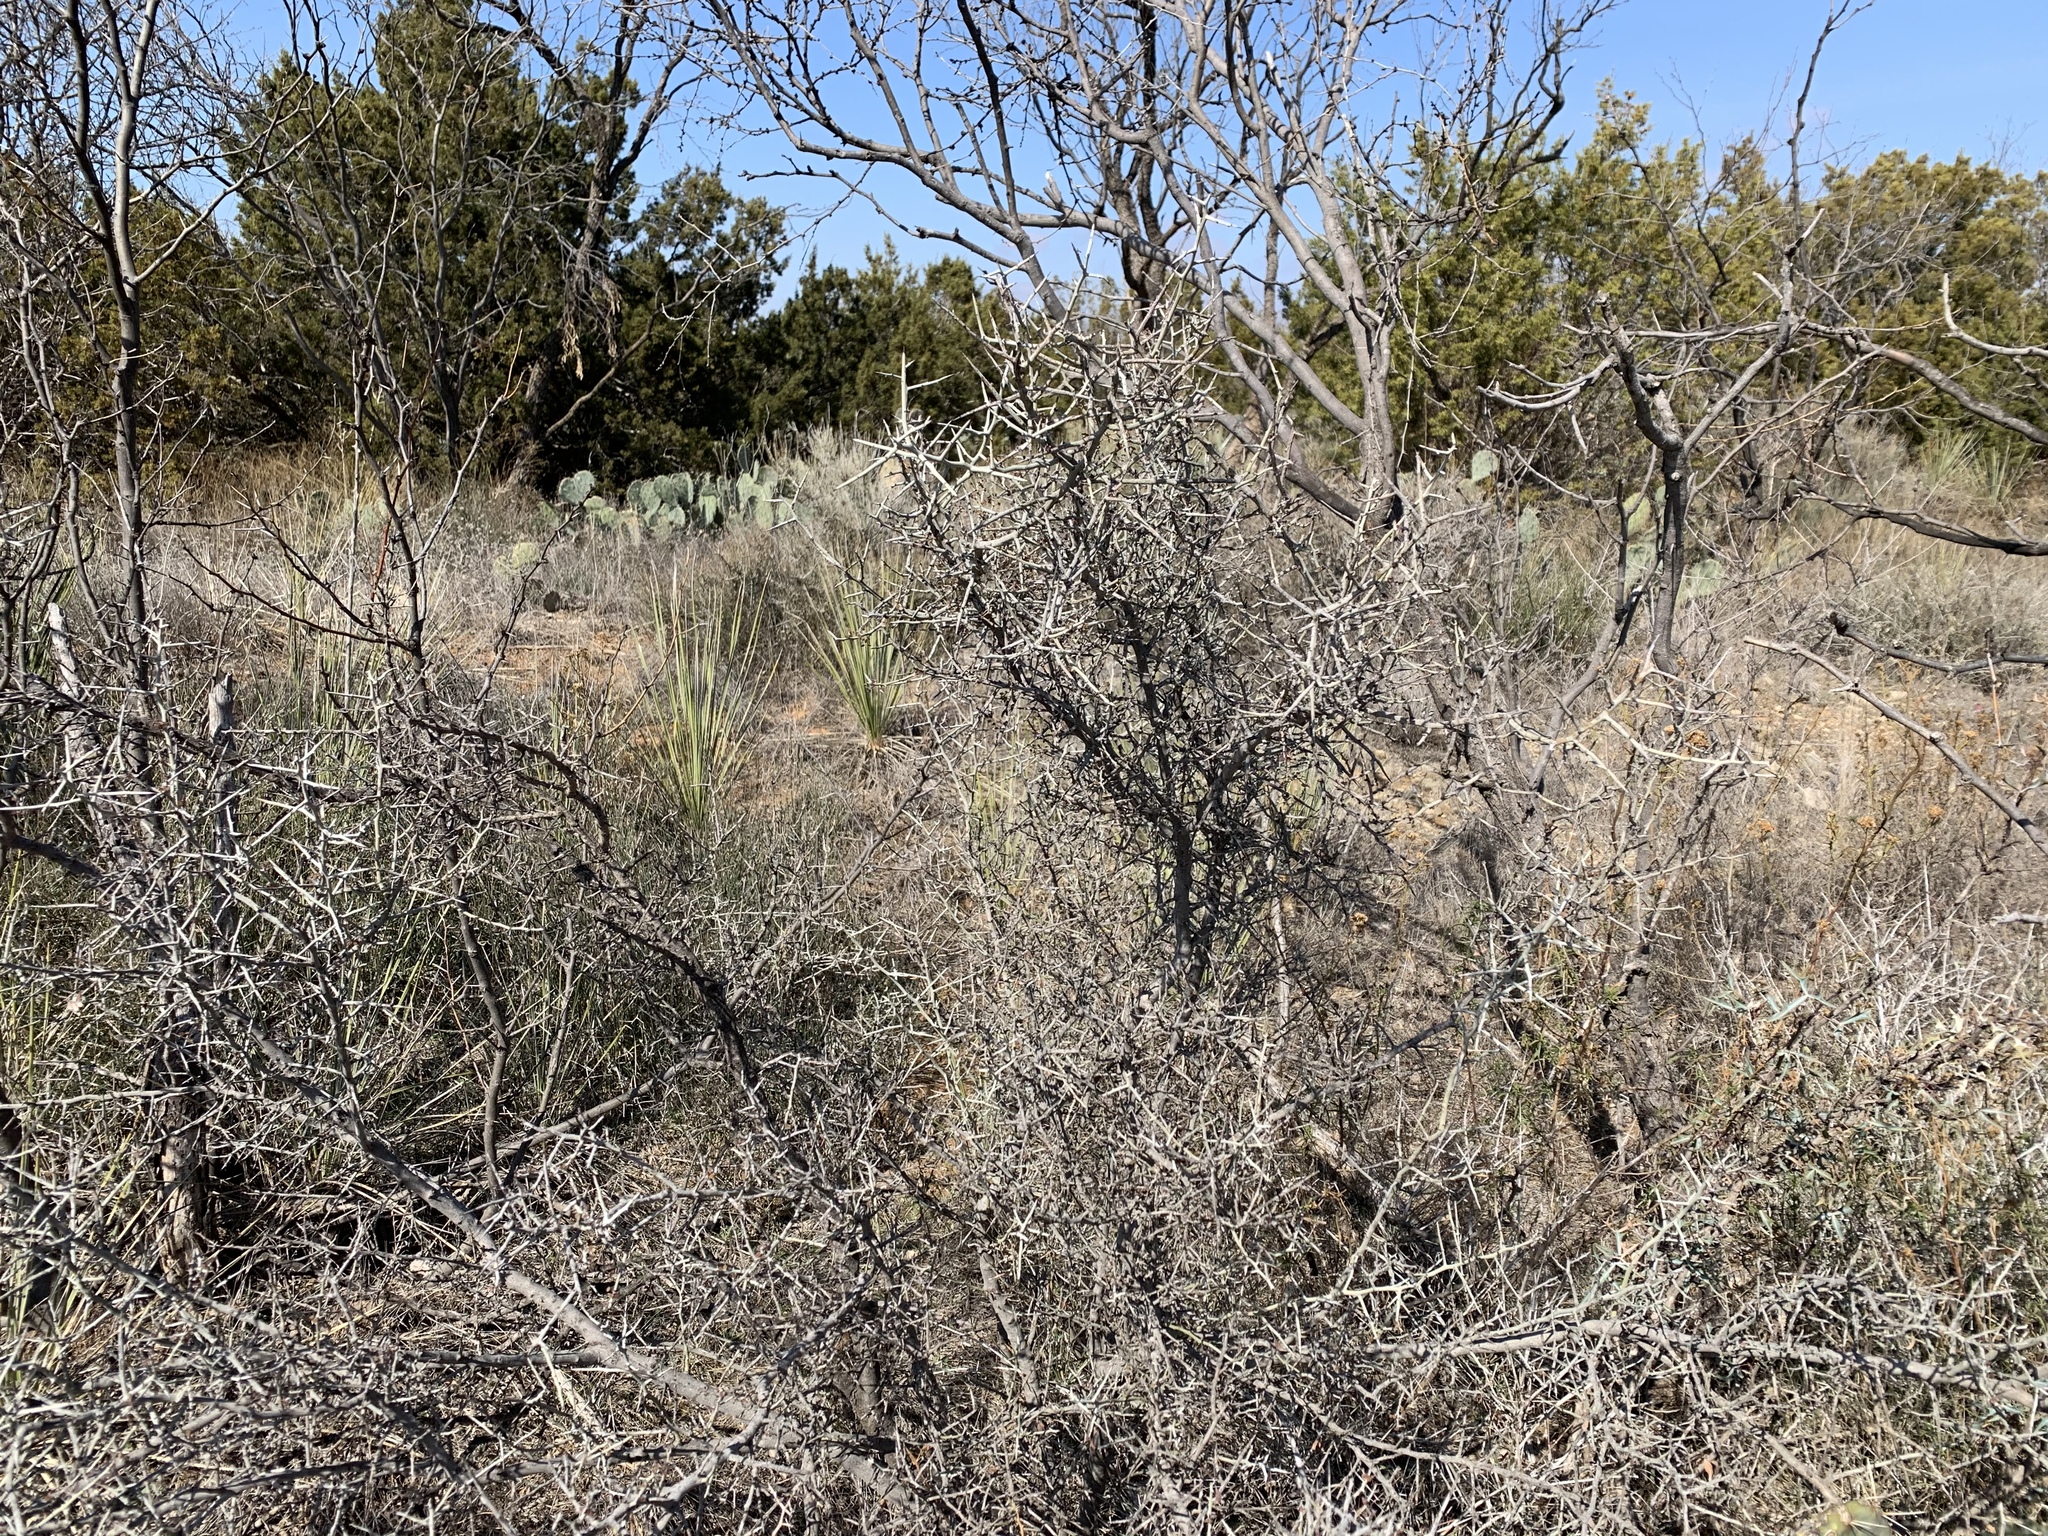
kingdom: Plantae
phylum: Tracheophyta
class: Magnoliopsida
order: Rosales
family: Rhamnaceae
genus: Sarcomphalus
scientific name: Sarcomphalus obtusifolius
